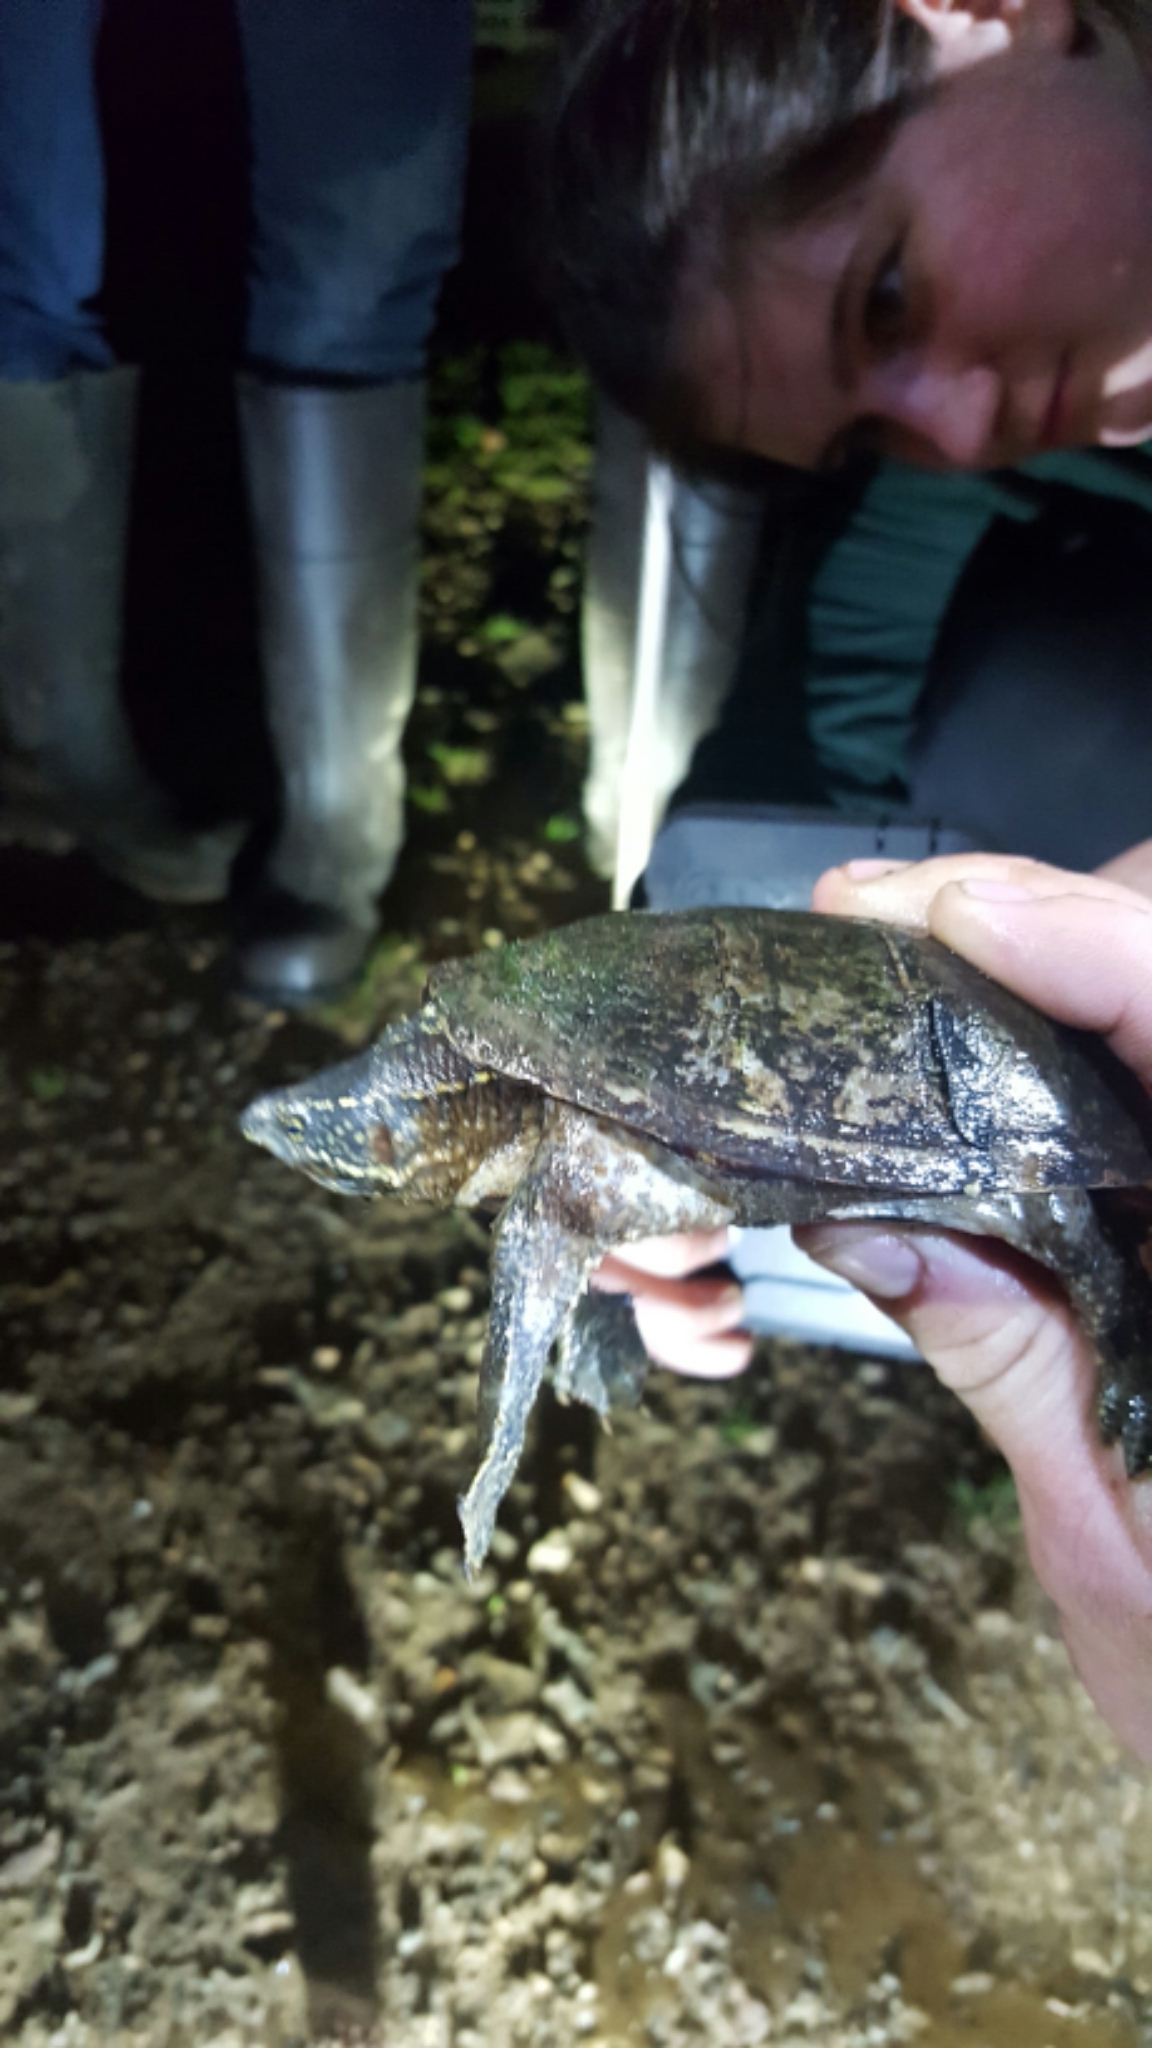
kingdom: Animalia
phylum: Chordata
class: Testudines
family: Kinosternidae
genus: Sternotherus
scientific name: Sternotherus odoratus
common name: Common musk turtle
